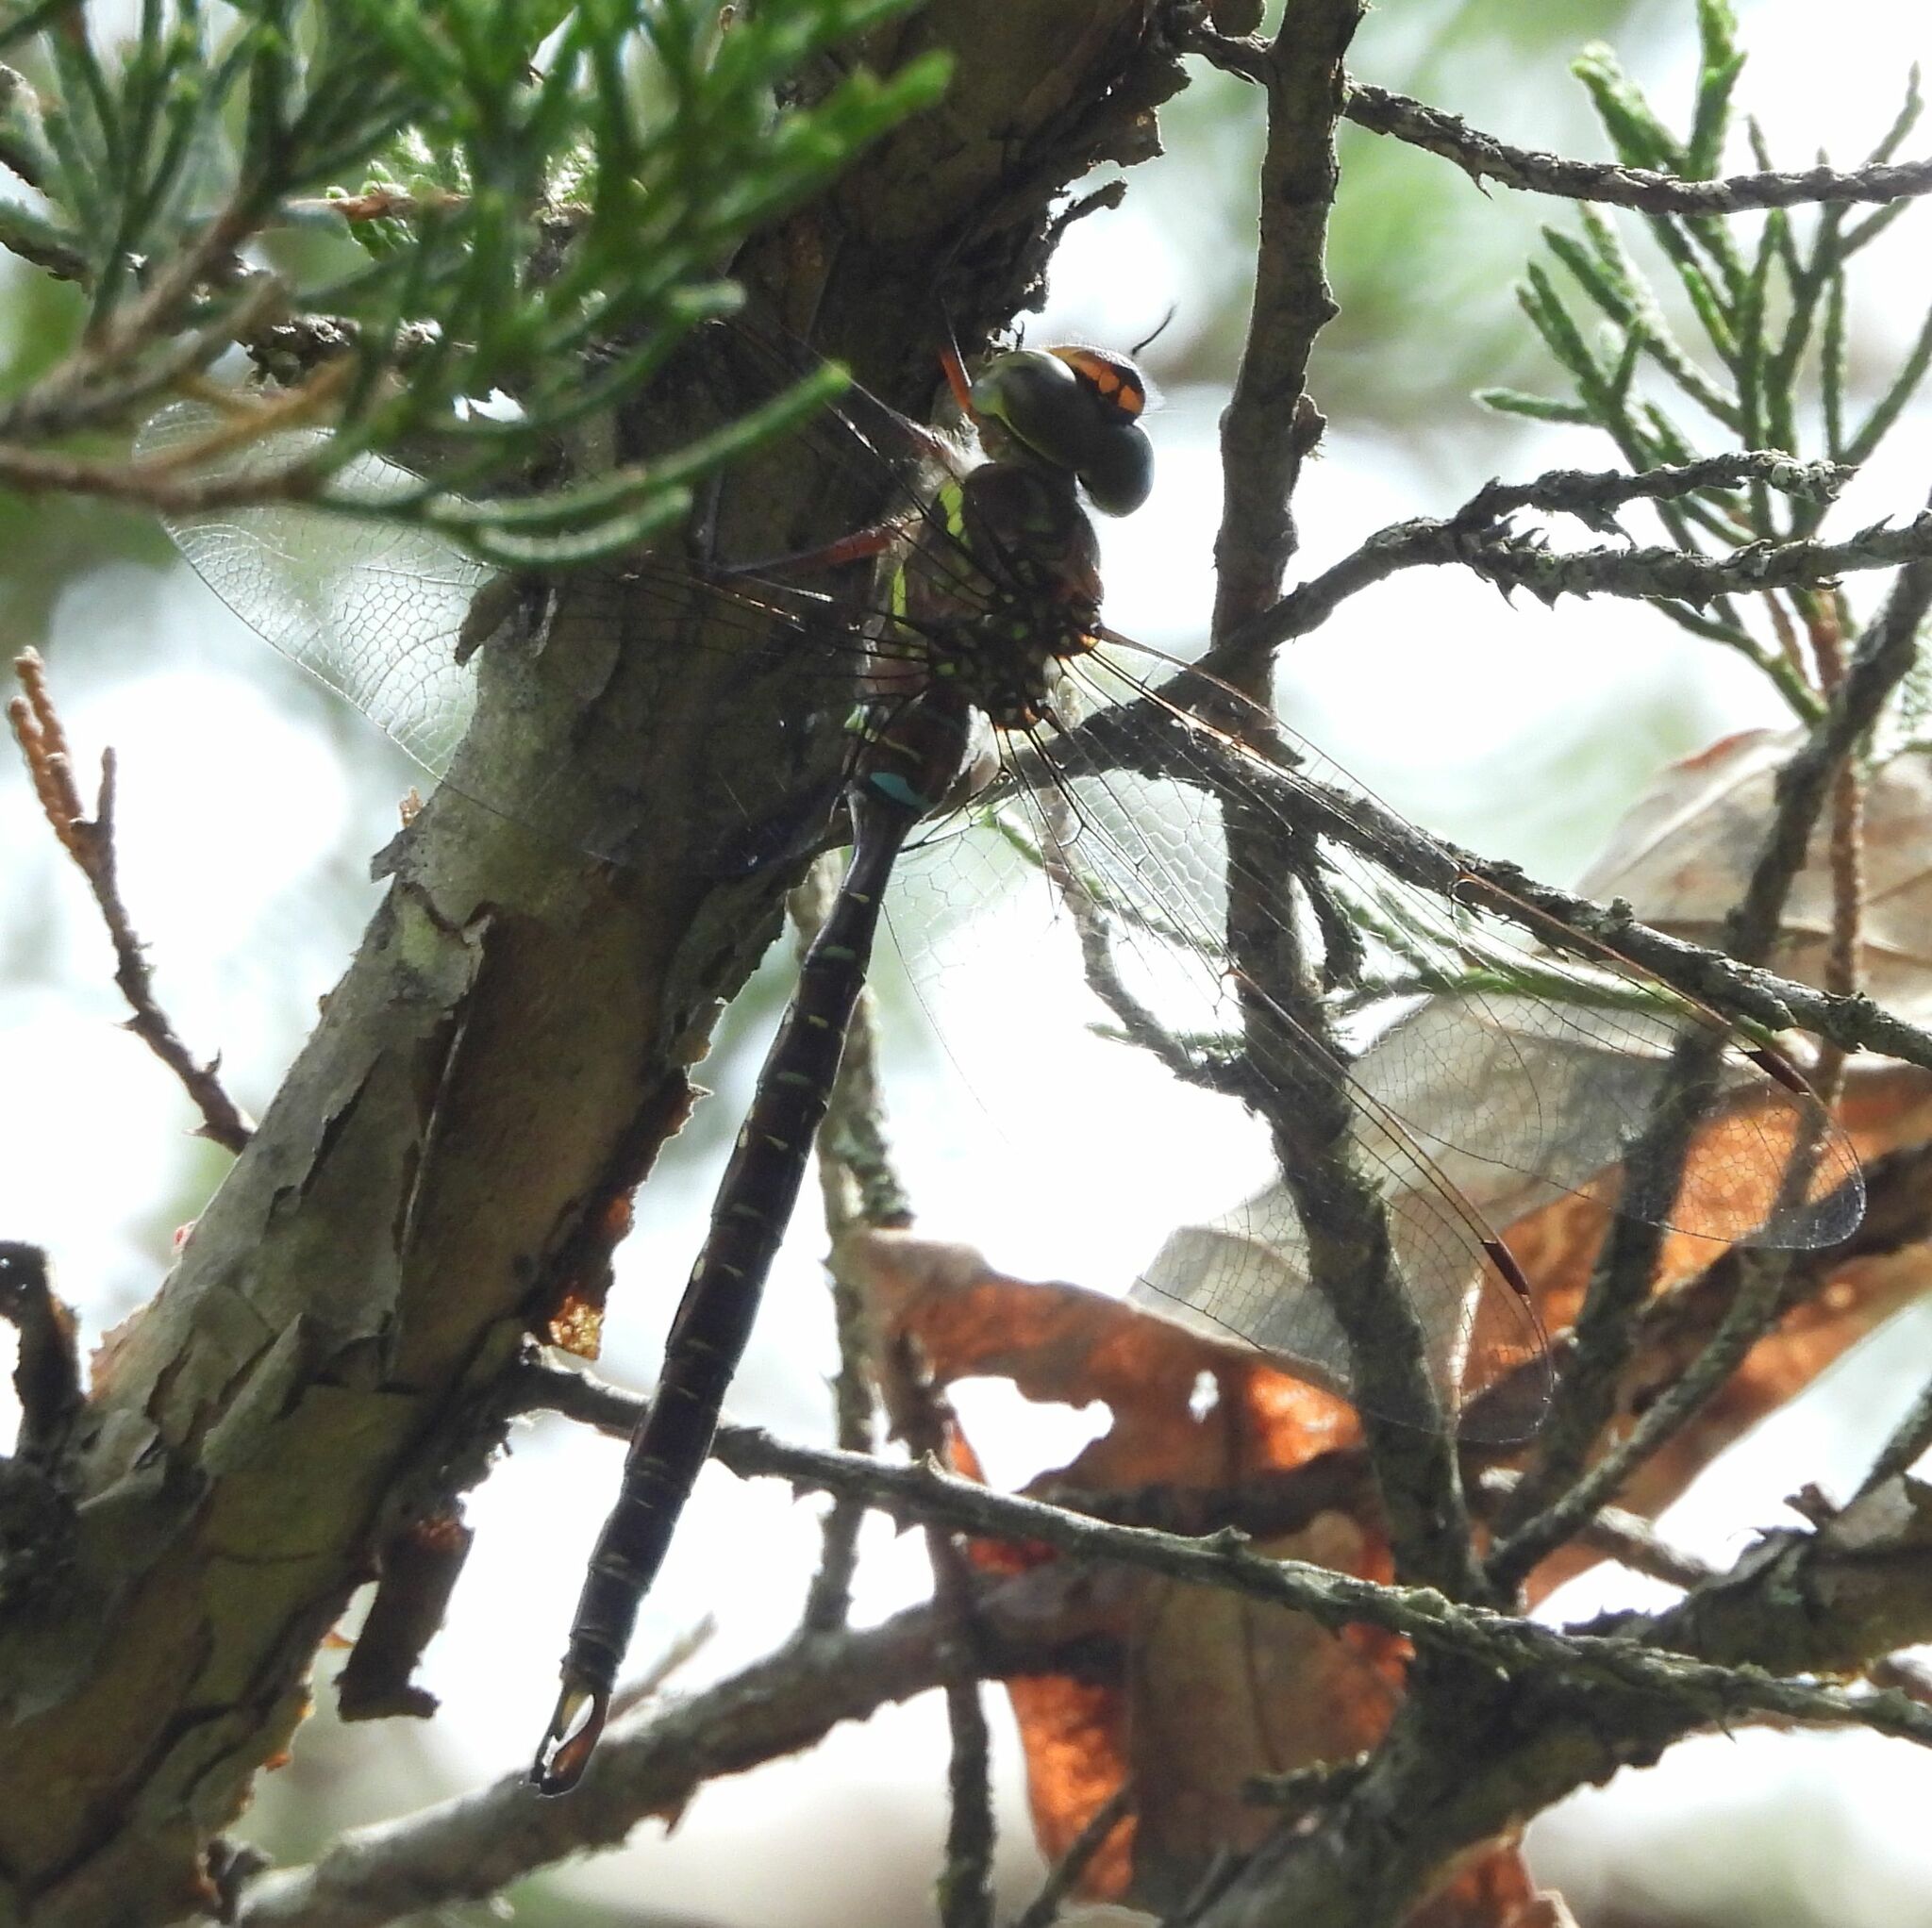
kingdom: Animalia
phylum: Arthropoda
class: Insecta
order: Odonata
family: Aeshnidae
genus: Aeshna
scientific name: Aeshna umbrosa
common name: Shadow darner
